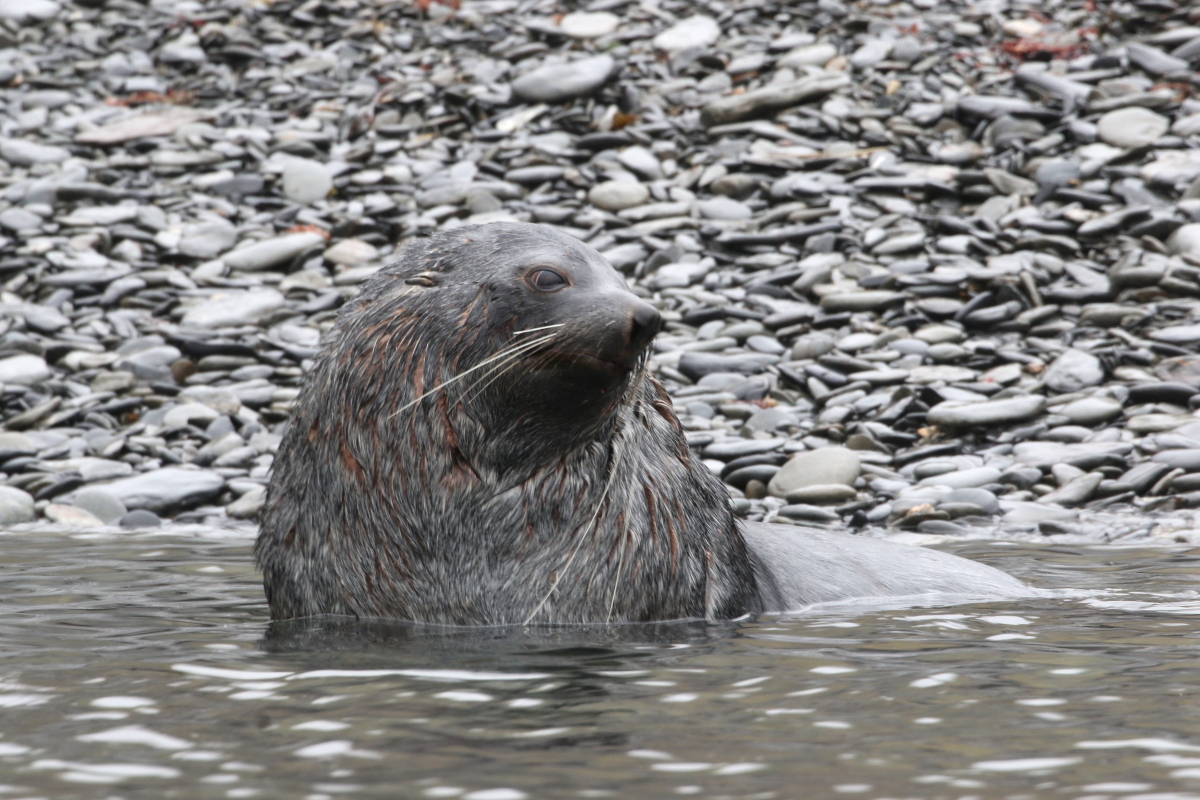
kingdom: Animalia
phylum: Chordata
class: Mammalia
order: Carnivora
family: Otariidae
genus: Arctocephalus
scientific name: Arctocephalus gazella
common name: Antarctic fur seal
